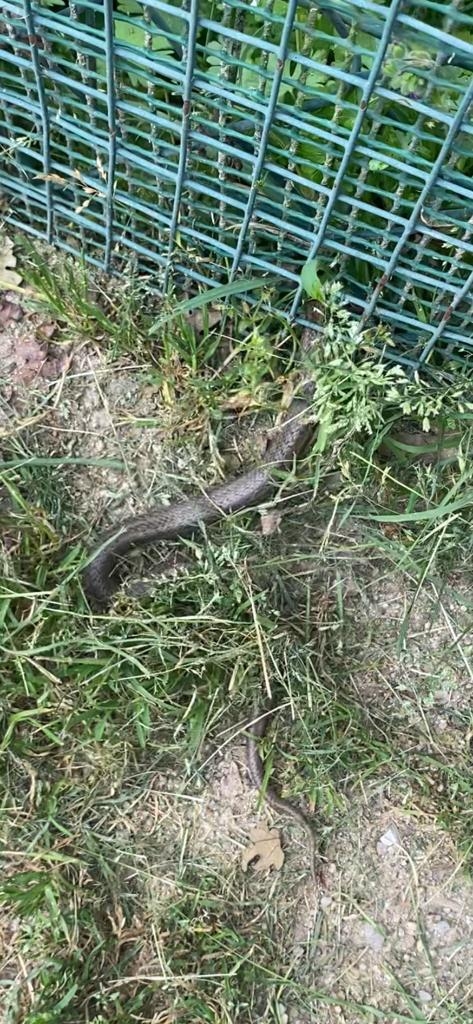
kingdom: Animalia
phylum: Chordata
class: Squamata
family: Colubridae
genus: Coronella
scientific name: Coronella austriaca
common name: Smooth snake
